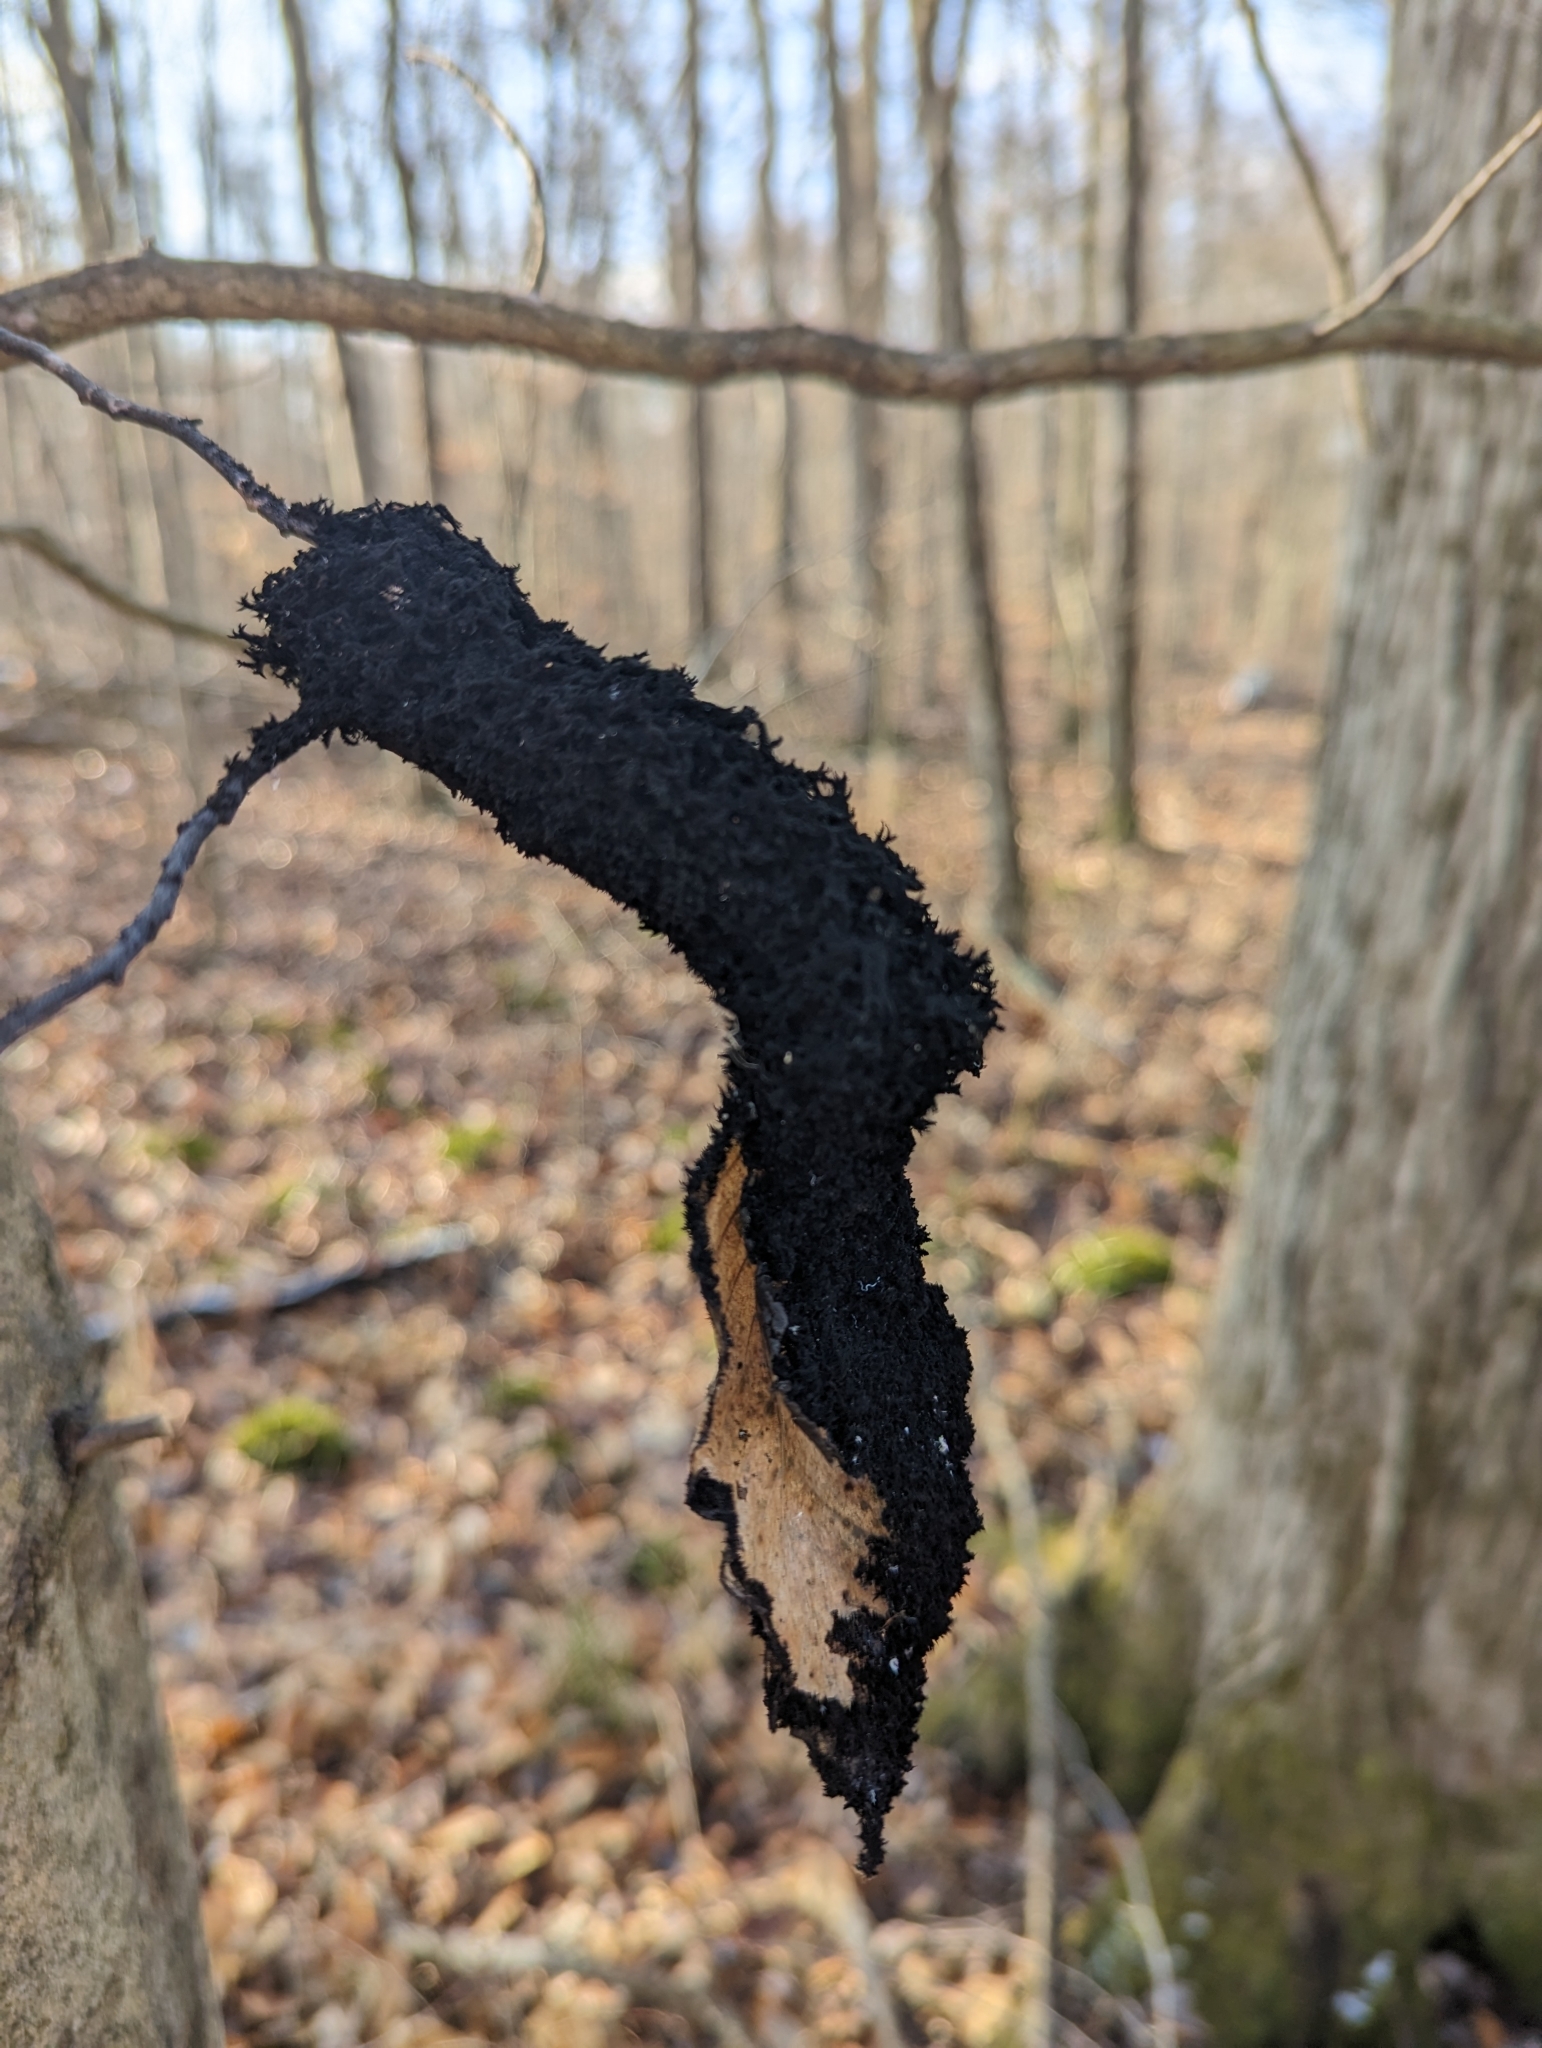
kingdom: Fungi
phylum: Ascomycota
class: Dothideomycetes
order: Capnodiales
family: Capnodiaceae
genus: Scorias
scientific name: Scorias spongiosa
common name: Black sooty mold
